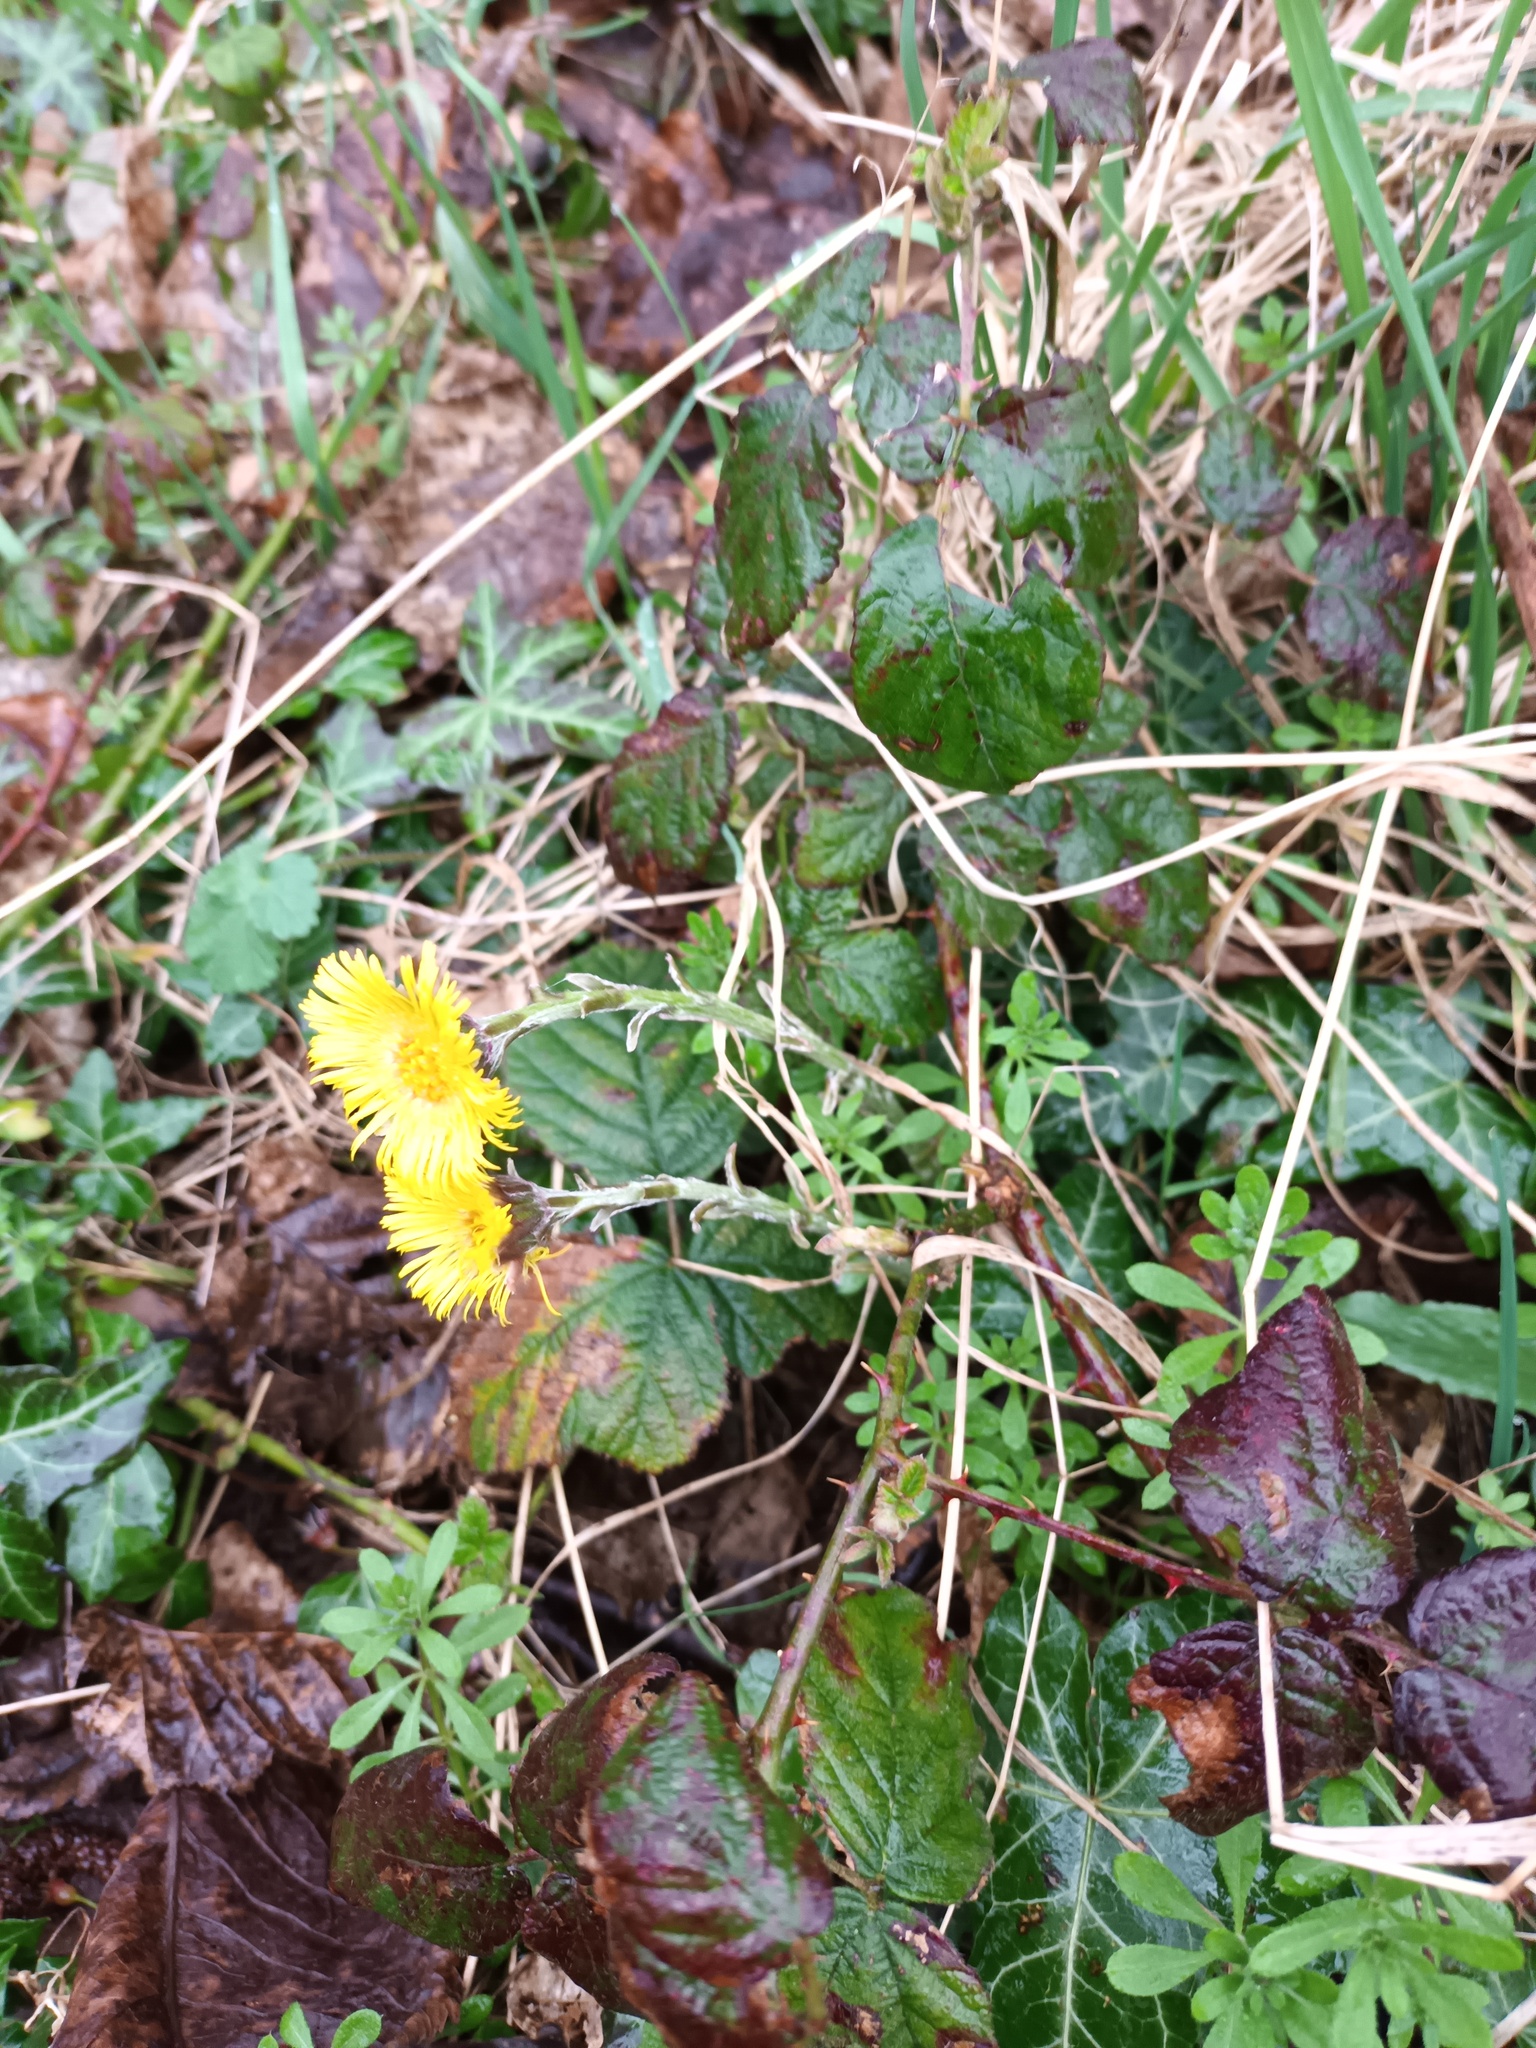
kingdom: Plantae
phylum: Tracheophyta
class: Magnoliopsida
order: Asterales
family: Asteraceae
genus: Tussilago
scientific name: Tussilago farfara
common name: Coltsfoot
